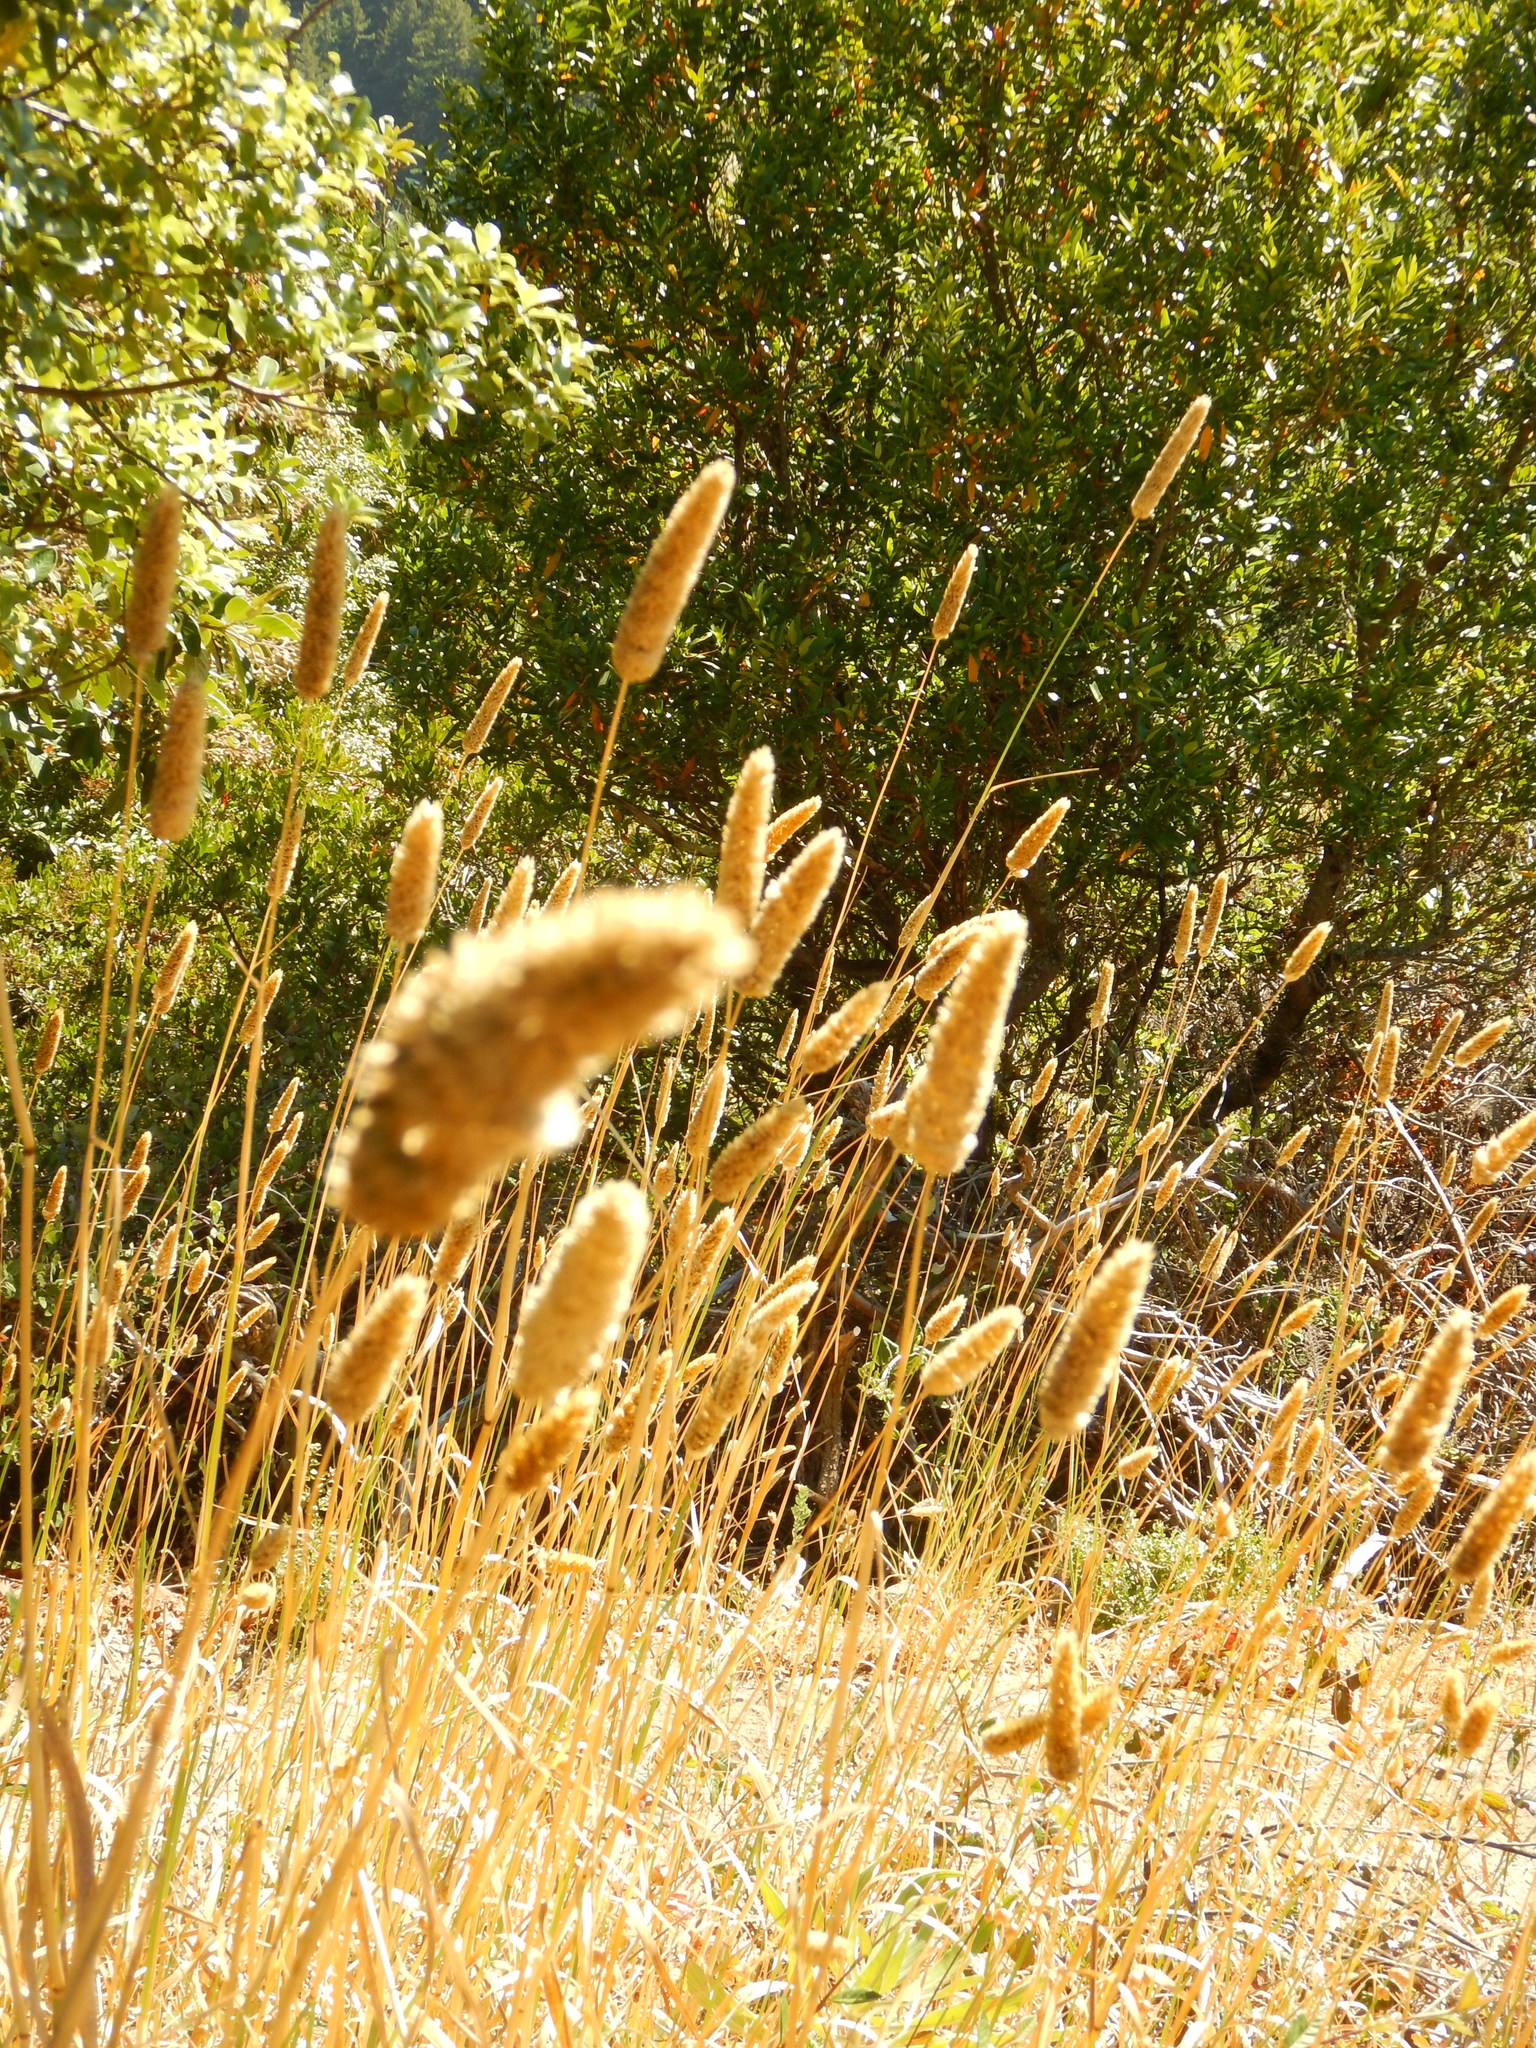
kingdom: Plantae
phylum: Tracheophyta
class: Liliopsida
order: Poales
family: Poaceae
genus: Phalaris
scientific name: Phalaris aquatica
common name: Bulbous canary-grass
